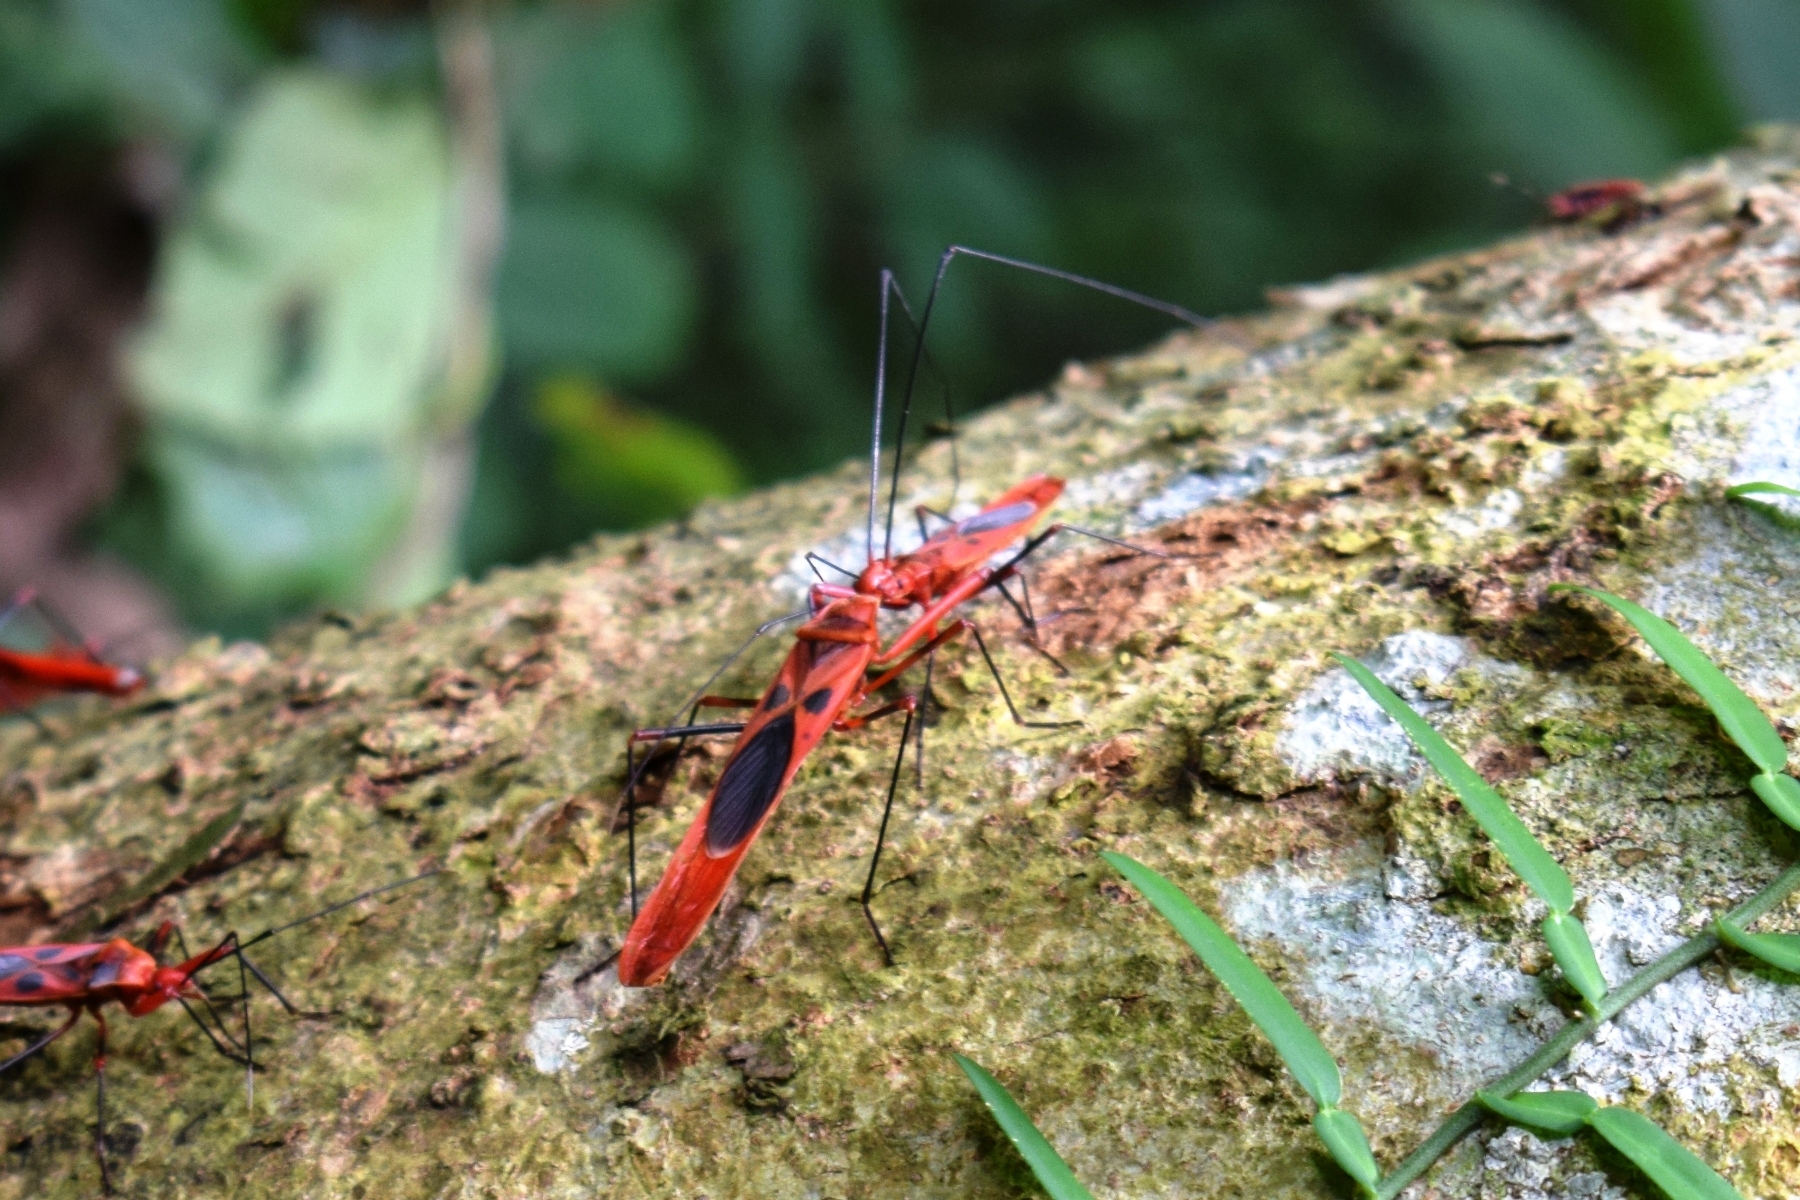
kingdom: Animalia
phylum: Arthropoda
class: Insecta
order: Hemiptera
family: Largidae
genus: Macrocheraia
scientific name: Macrocheraia grandis
